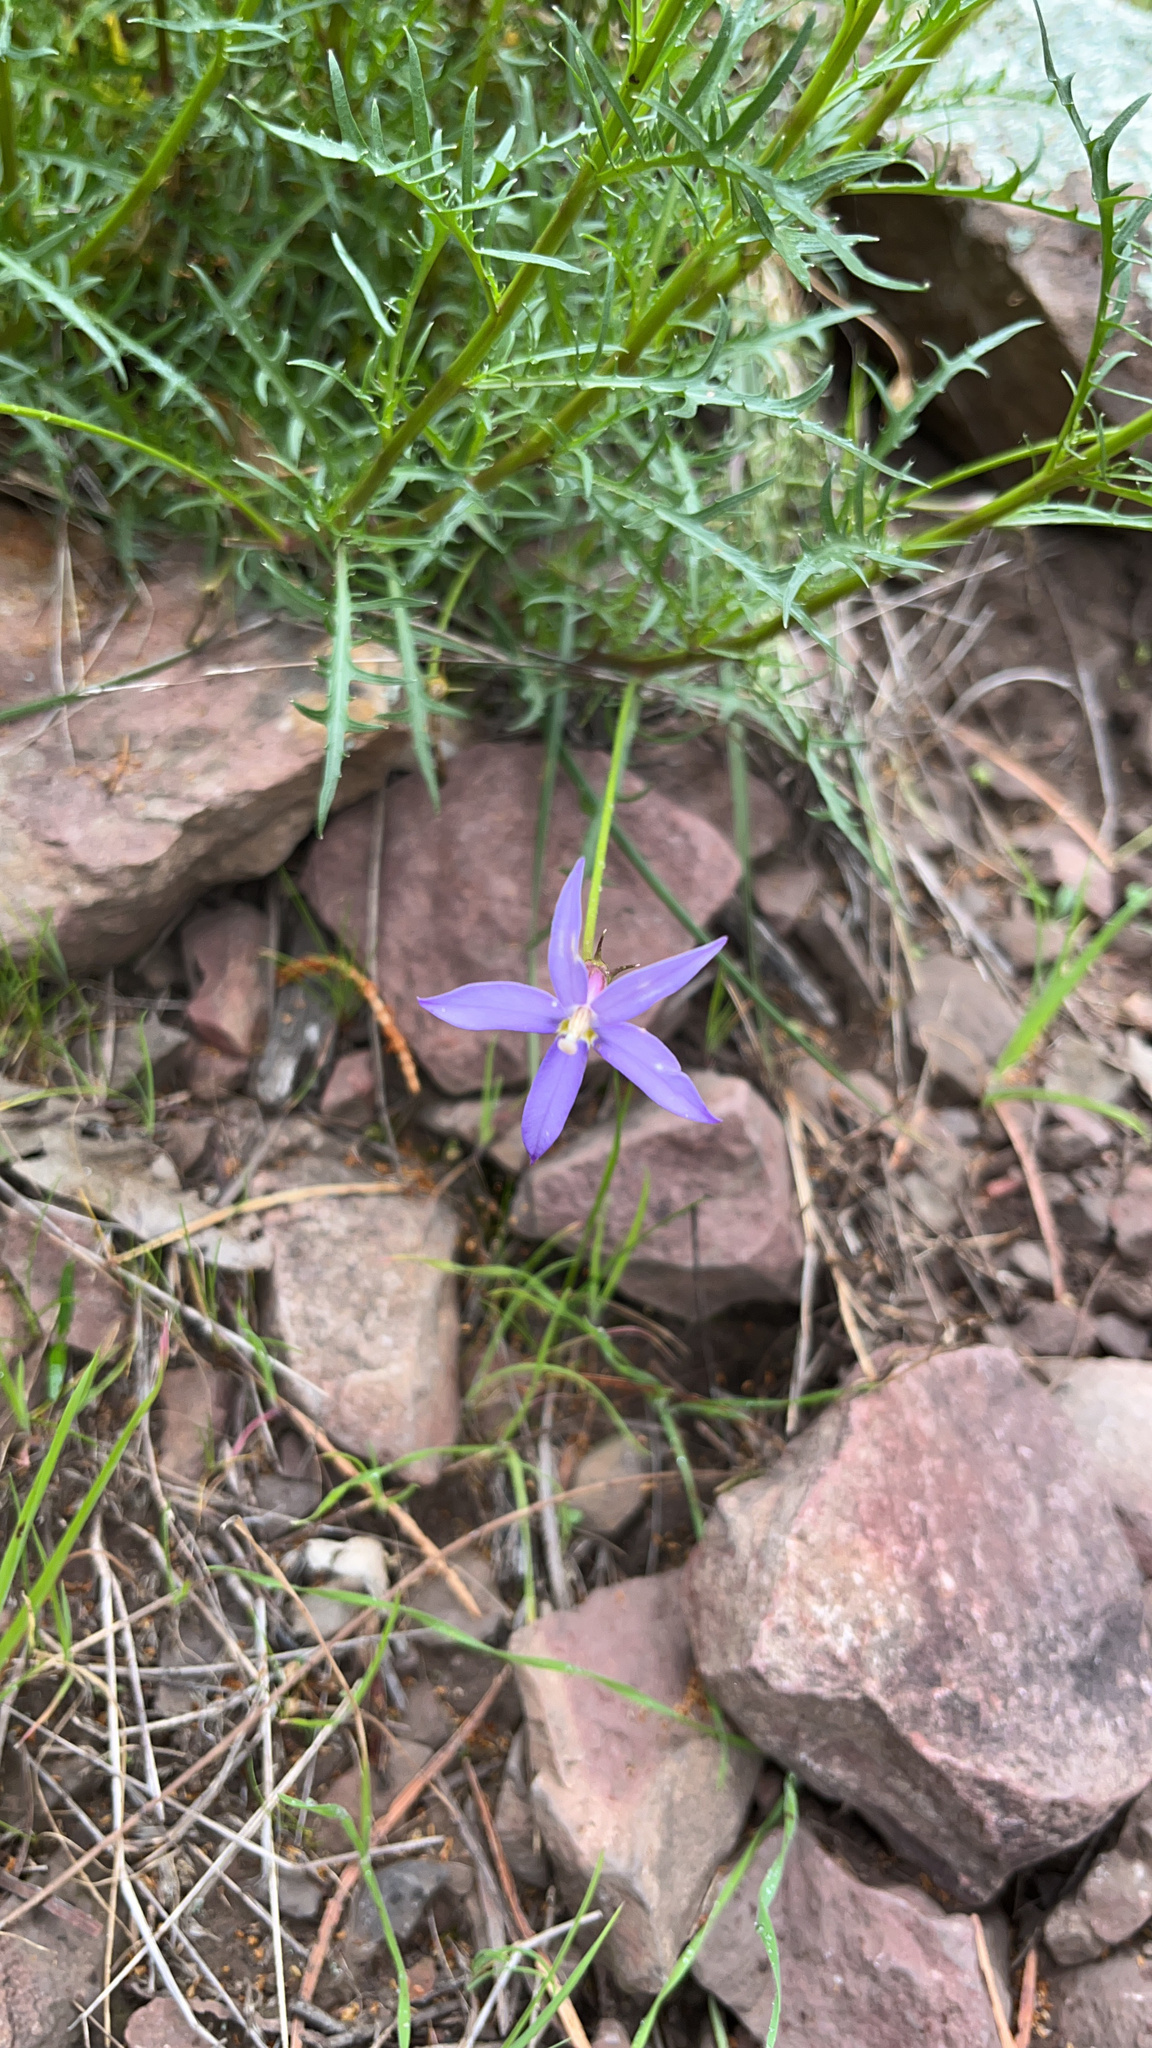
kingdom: Plantae
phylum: Tracheophyta
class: Magnoliopsida
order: Asterales
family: Campanulaceae
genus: Lithotoma
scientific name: Lithotoma axillaris
